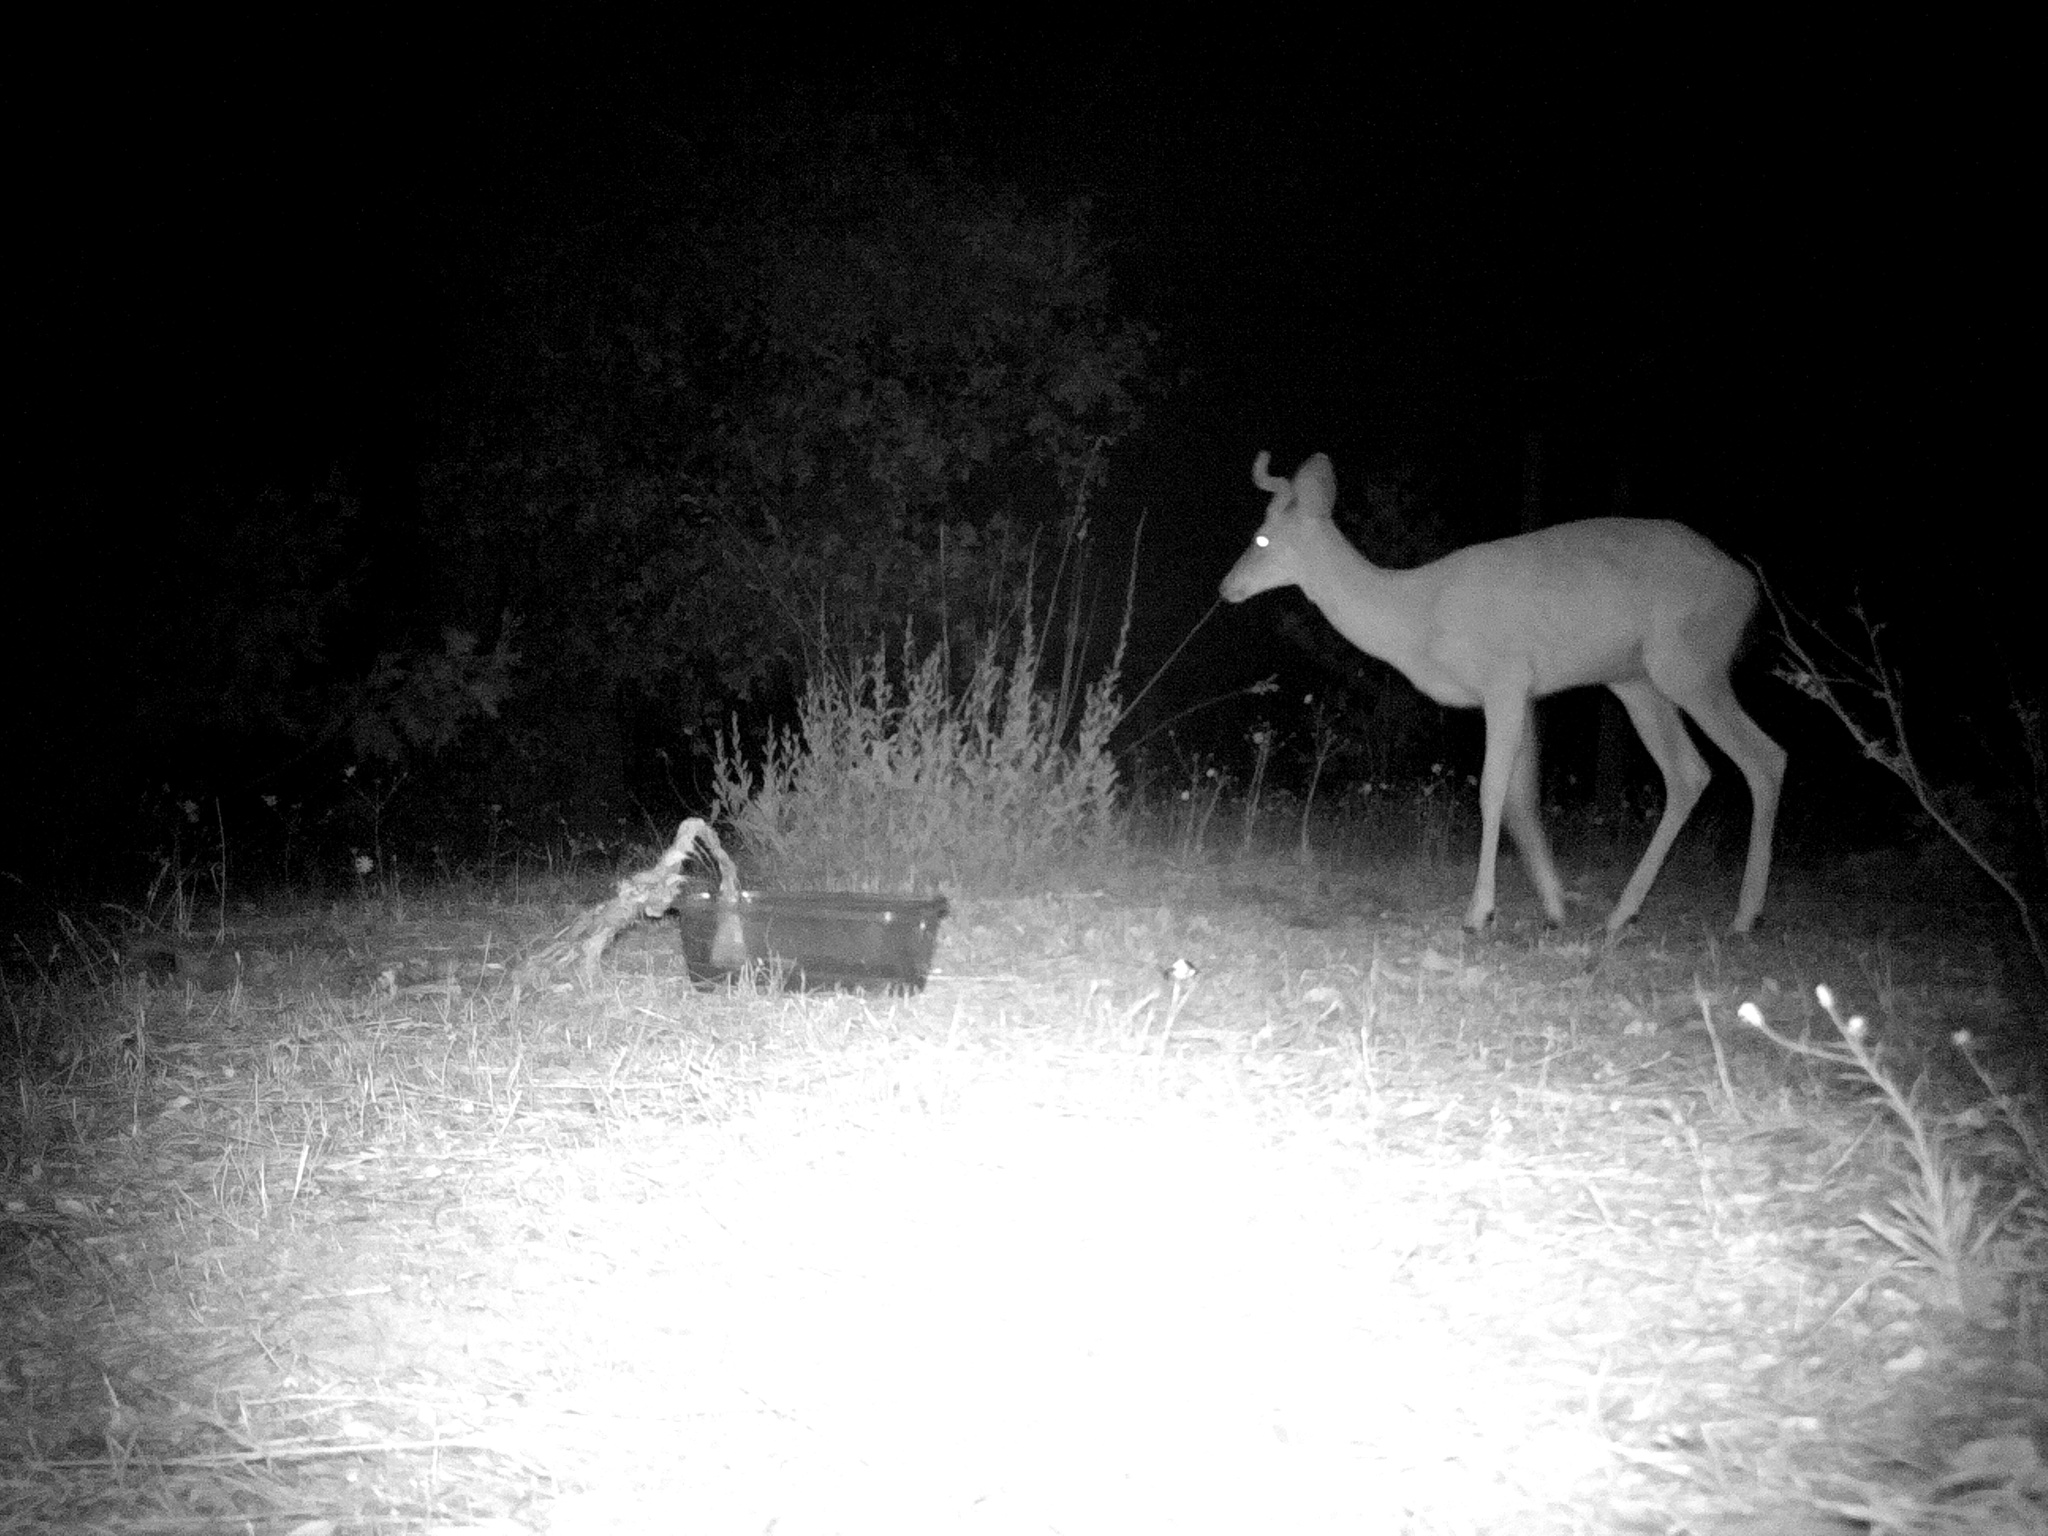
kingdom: Animalia
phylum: Chordata
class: Mammalia
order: Artiodactyla
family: Cervidae
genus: Odocoileus
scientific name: Odocoileus hemionus
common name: Mule deer
